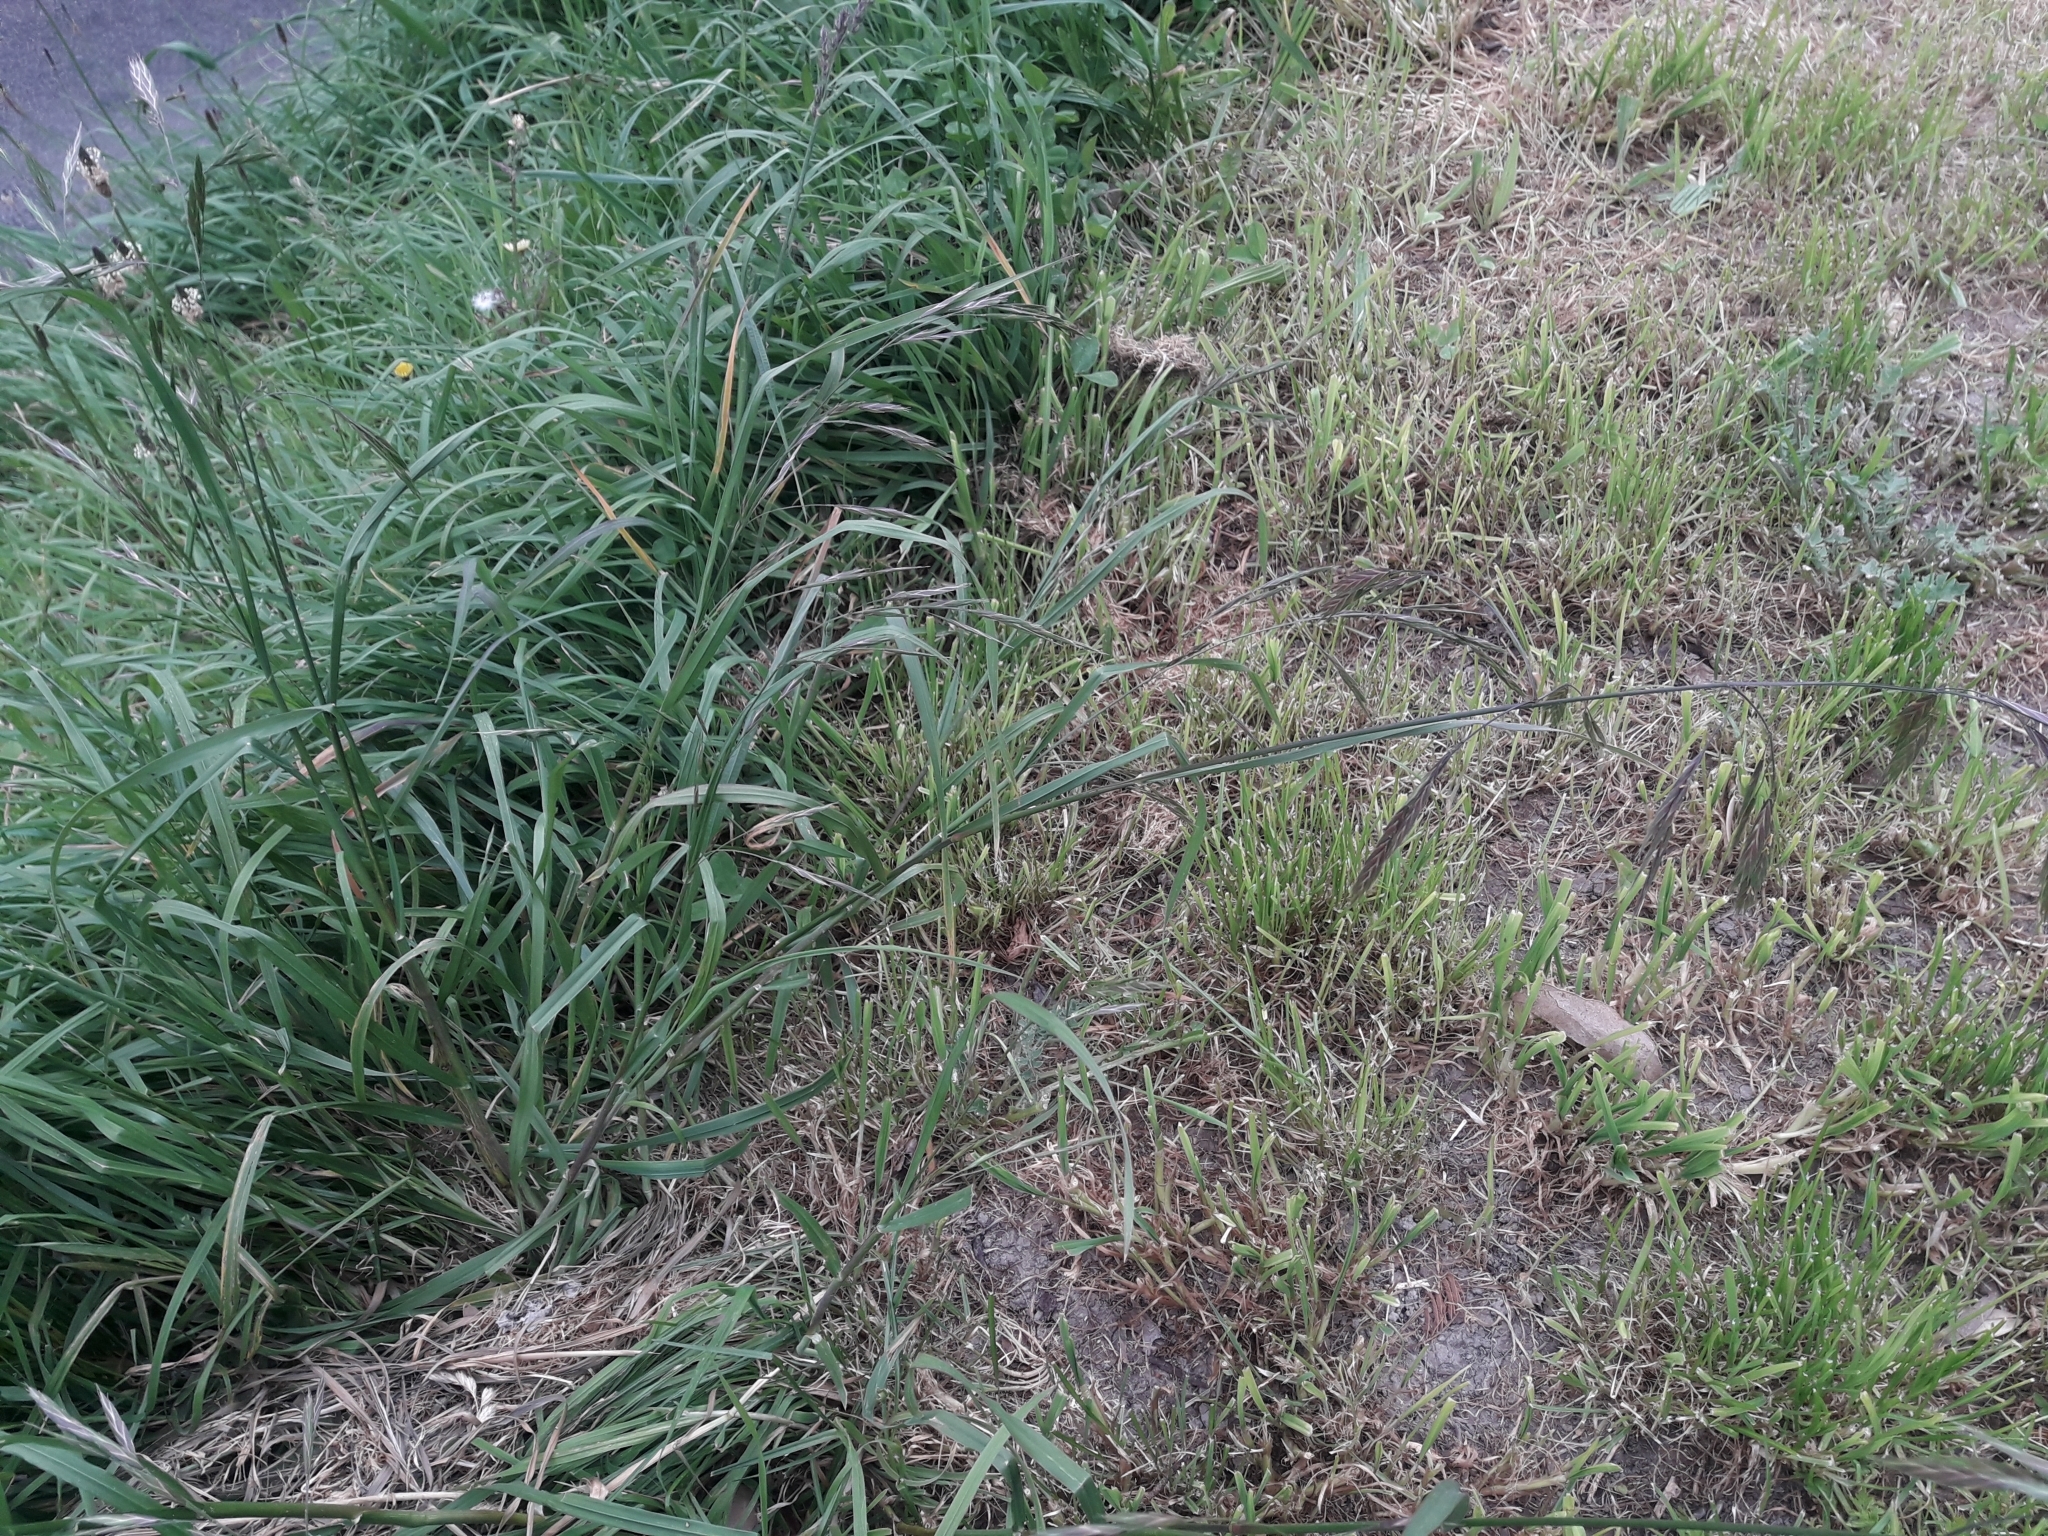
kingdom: Plantae
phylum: Tracheophyta
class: Liliopsida
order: Poales
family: Poaceae
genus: Bromus
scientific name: Bromus catharticus
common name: Rescuegrass
